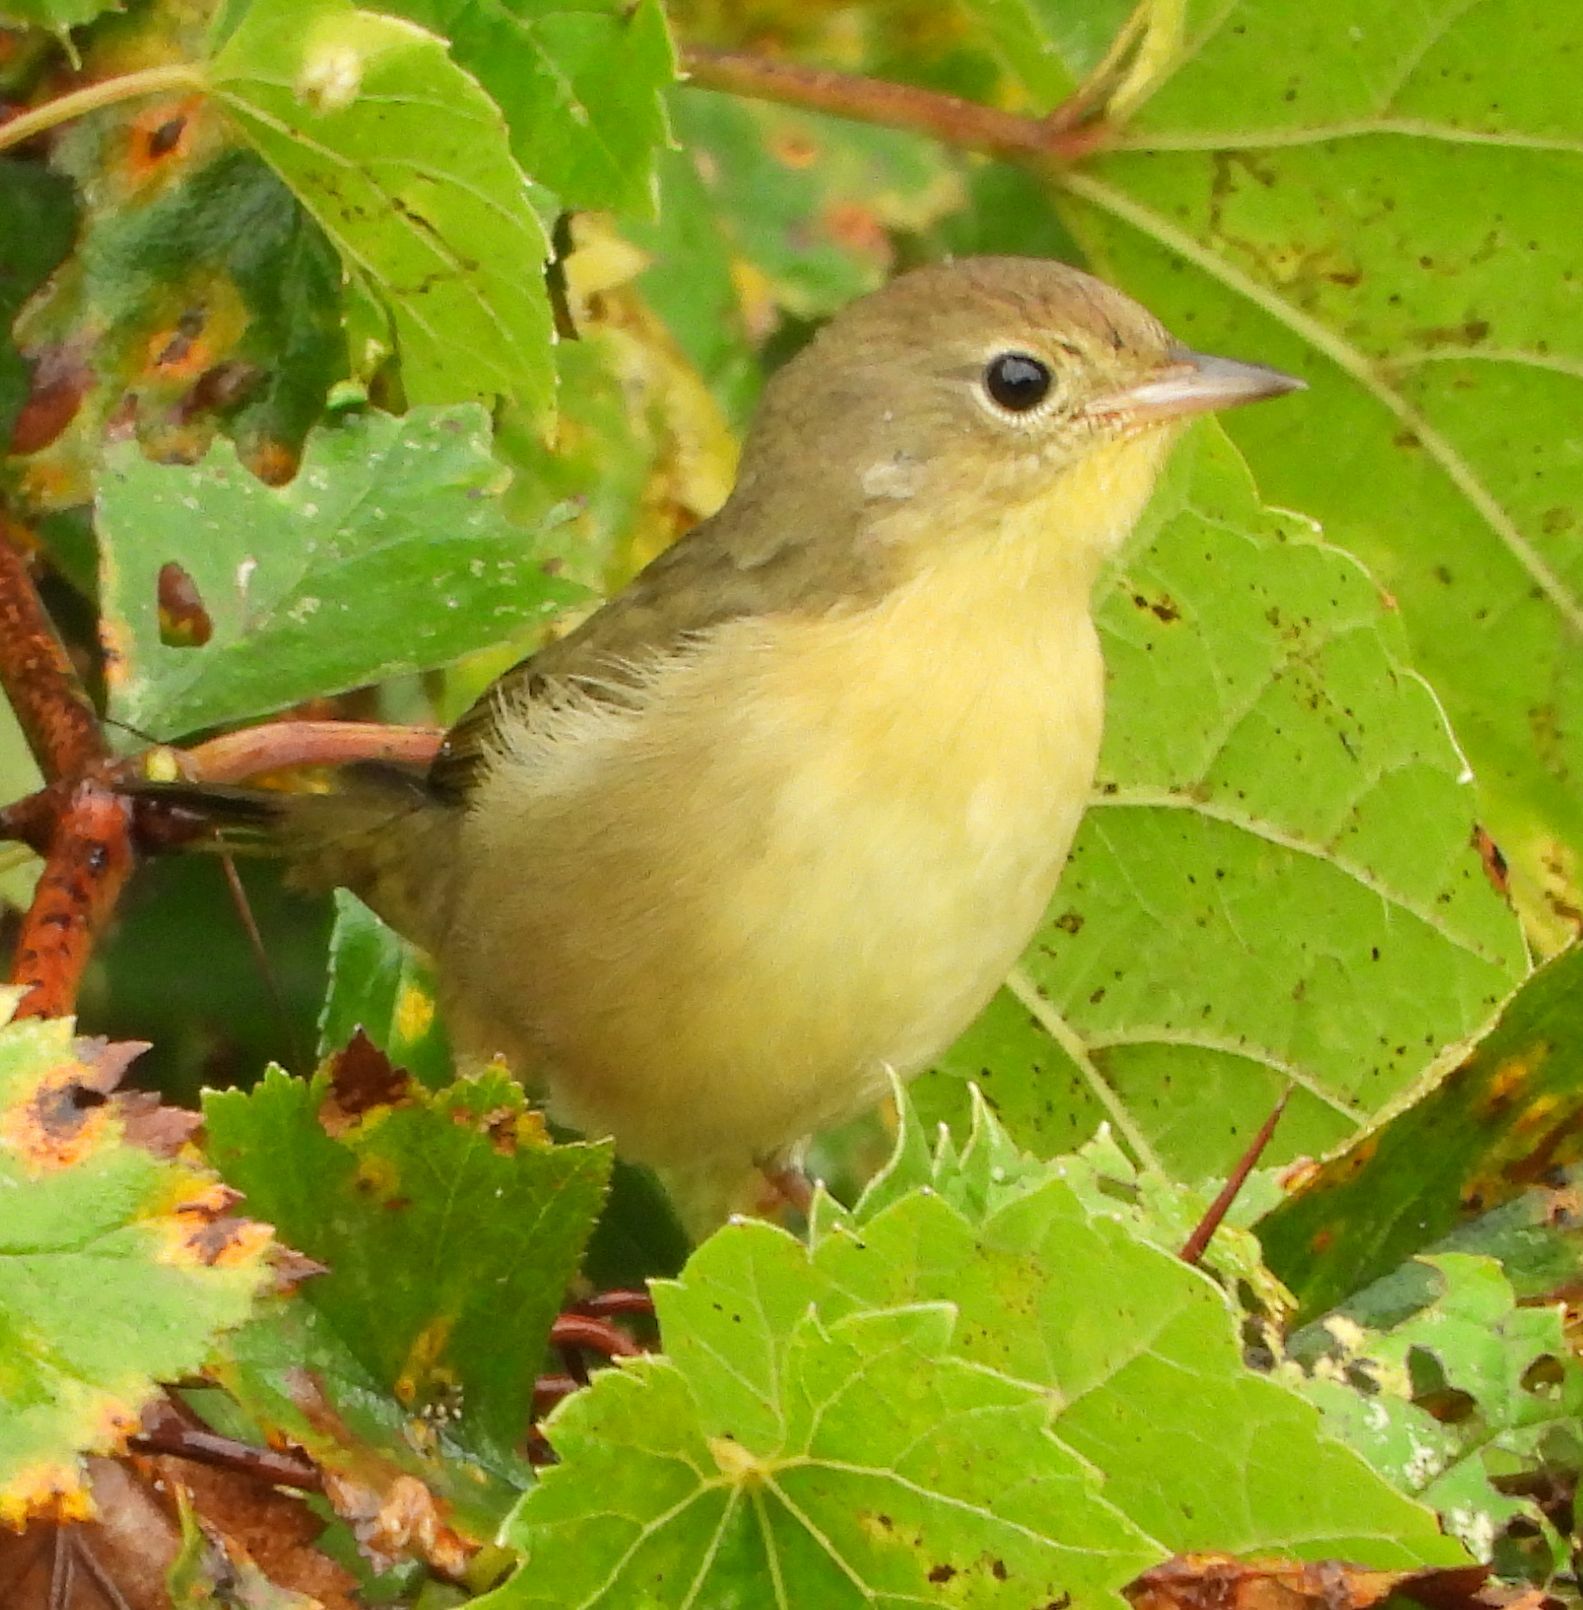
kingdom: Animalia
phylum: Chordata
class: Aves
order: Passeriformes
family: Parulidae
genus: Geothlypis
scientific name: Geothlypis trichas
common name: Common yellowthroat
